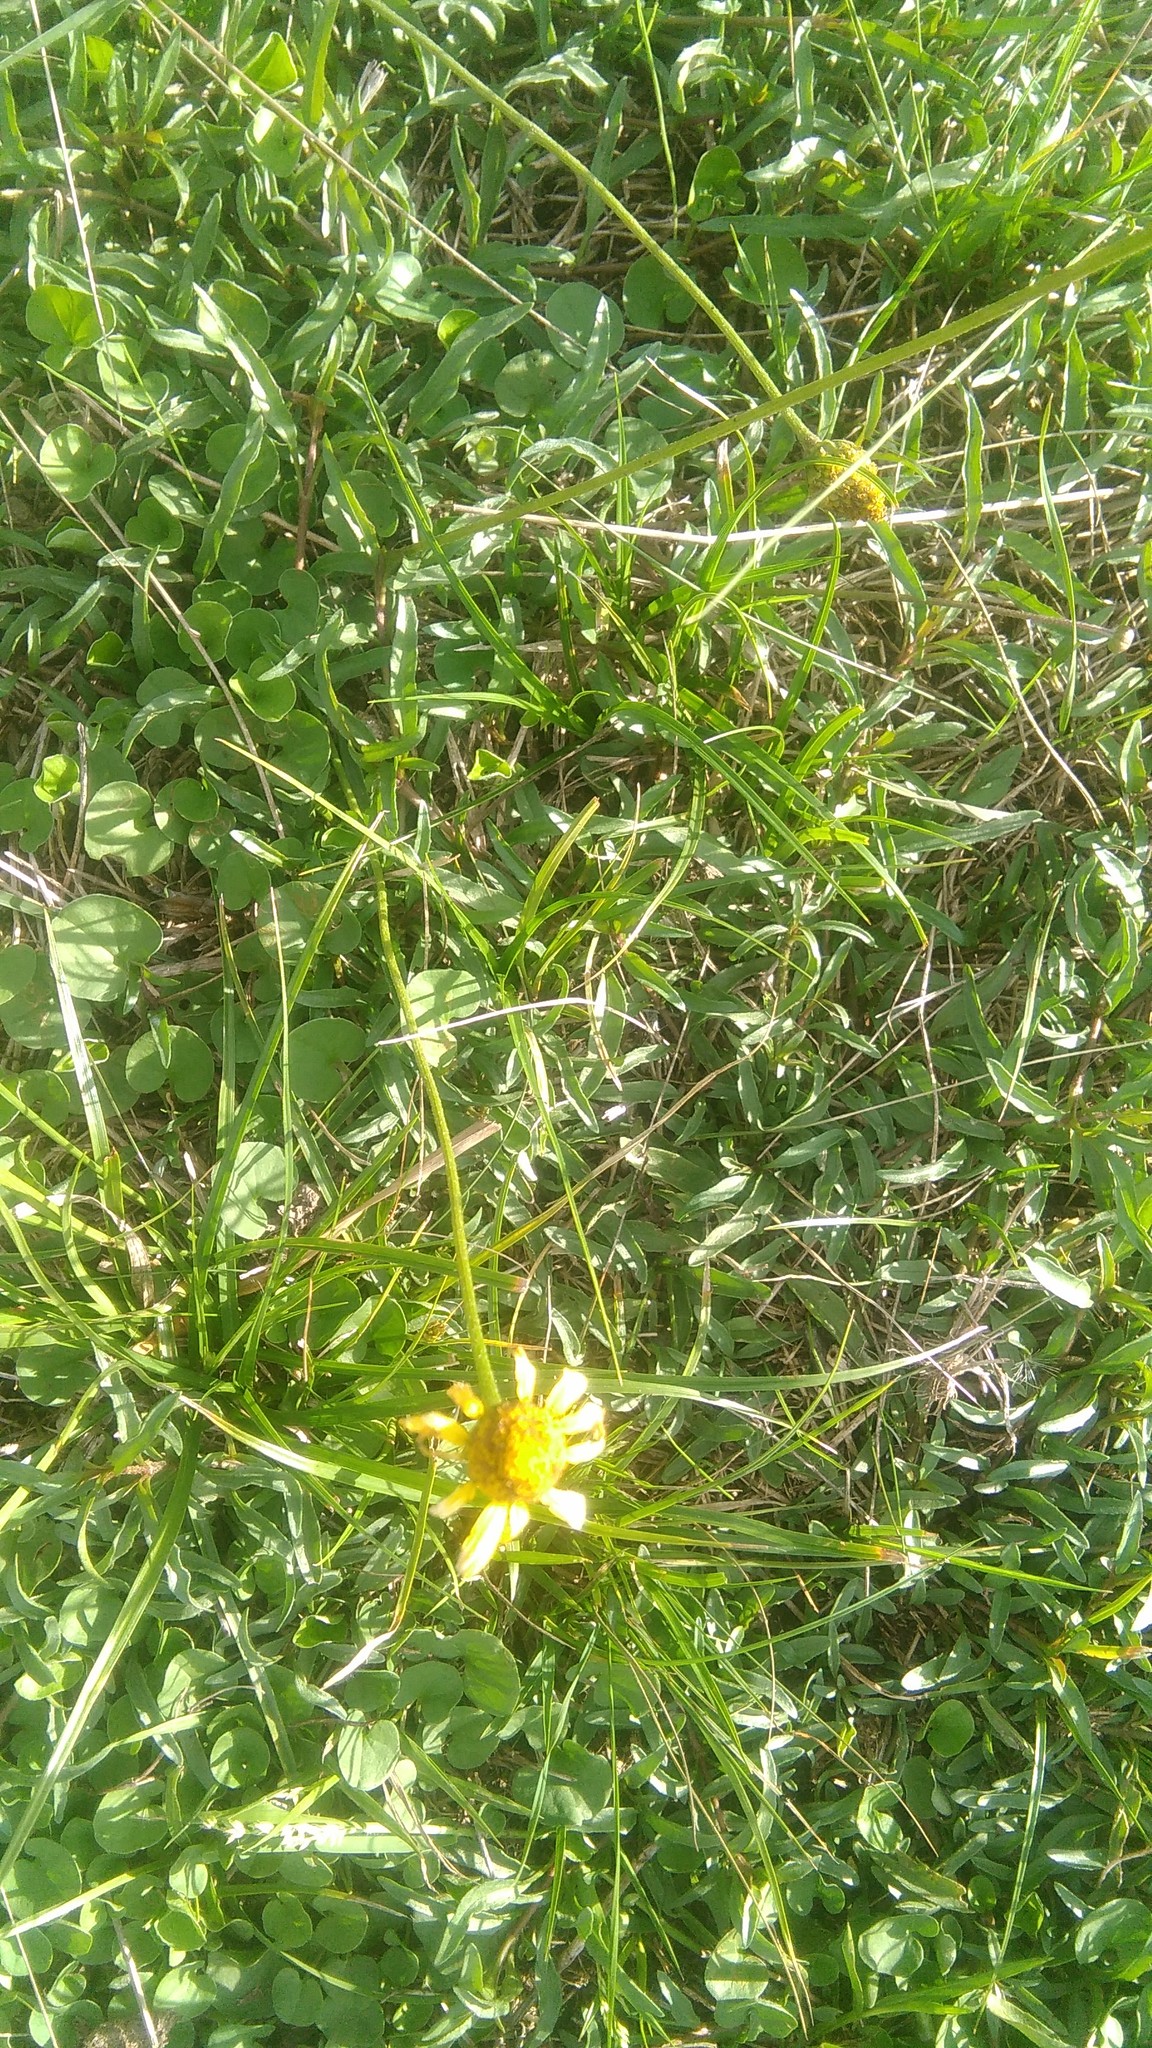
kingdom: Plantae
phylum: Tracheophyta
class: Magnoliopsida
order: Asterales
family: Asteraceae
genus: Acmella
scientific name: Acmella decumbens
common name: Creeping spotflower
